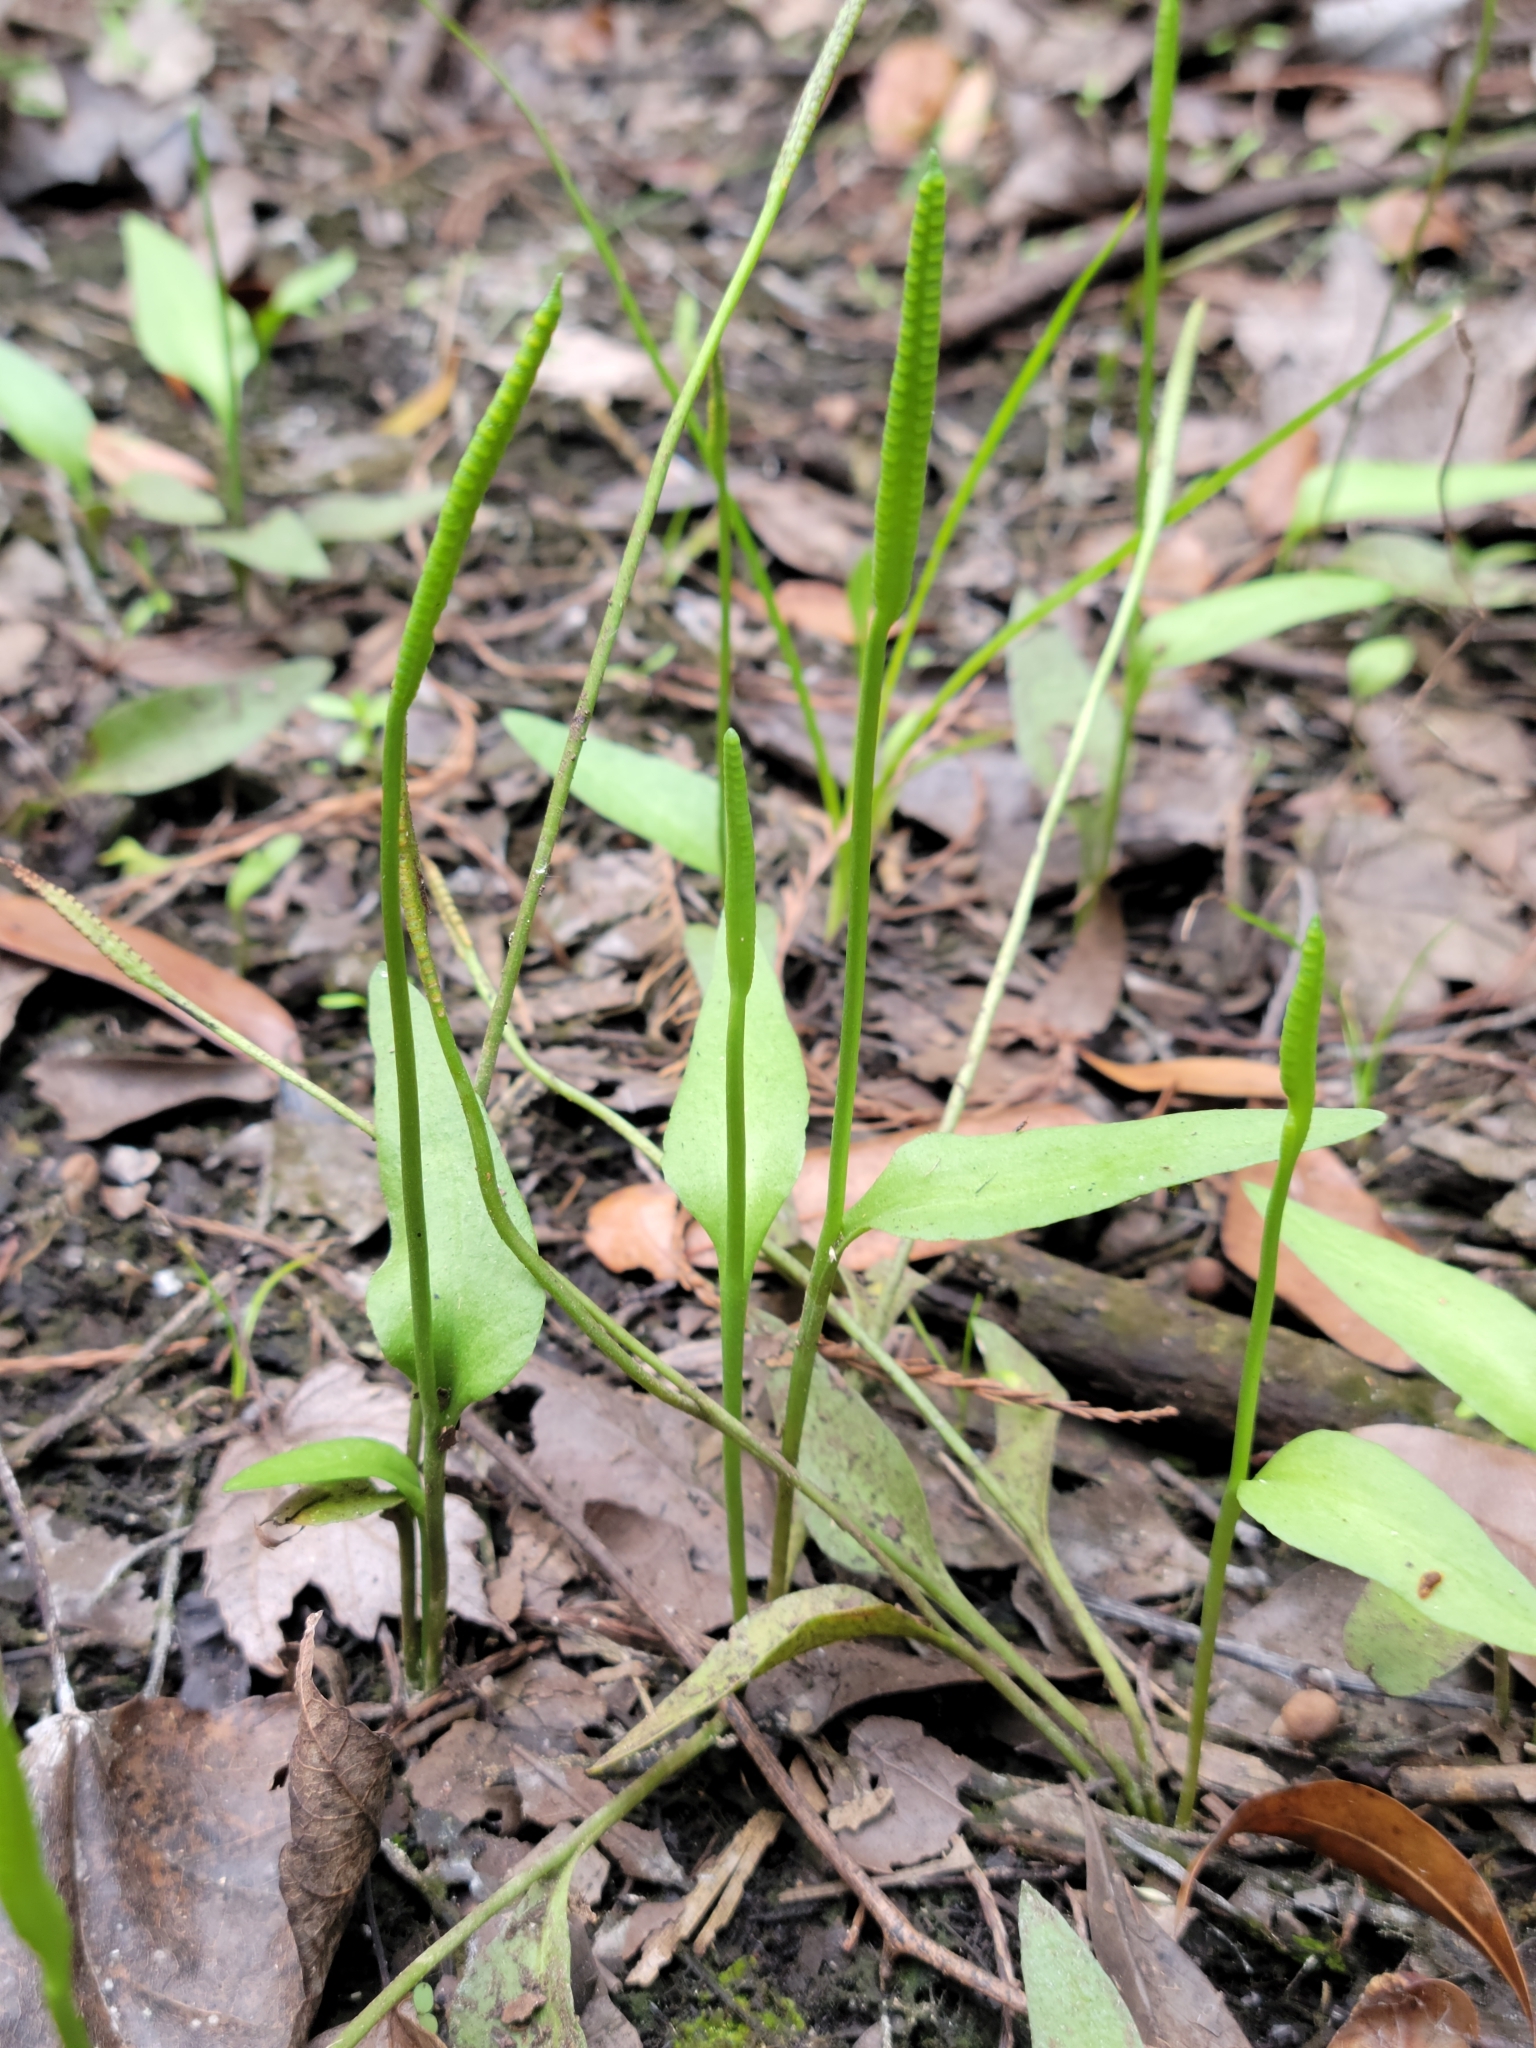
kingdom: Plantae
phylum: Tracheophyta
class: Polypodiopsida
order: Ophioglossales
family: Ophioglossaceae
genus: Ophioglossum
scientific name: Ophioglossum petiolatum
